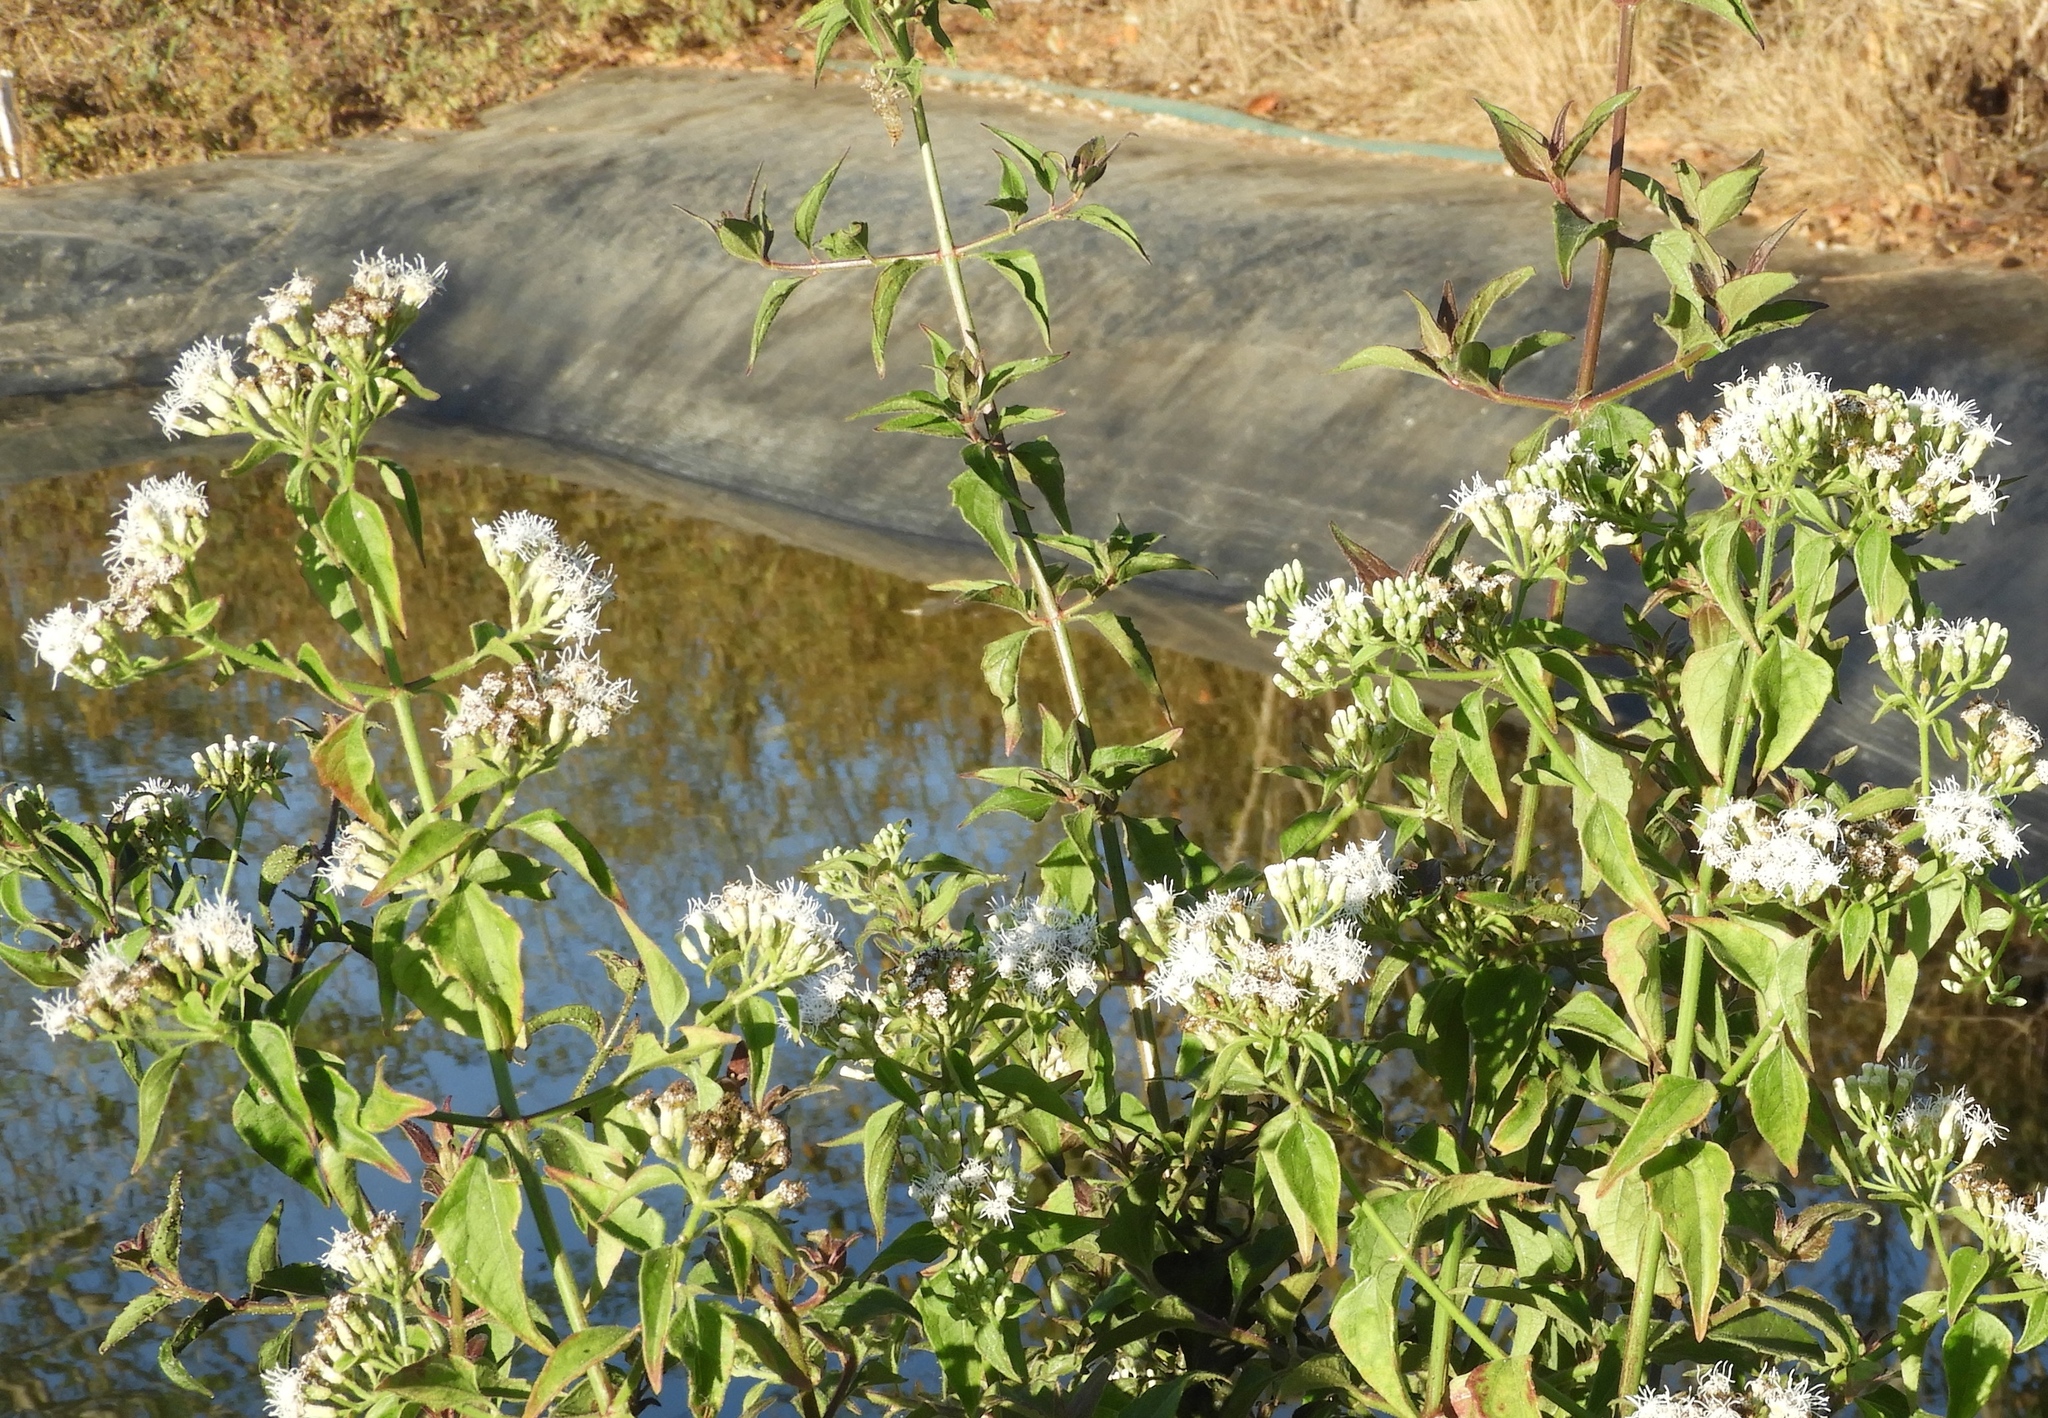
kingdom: Plantae
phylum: Tracheophyta
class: Magnoliopsida
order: Asterales
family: Asteraceae
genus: Chromolaena
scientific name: Chromolaena odorata
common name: Siamweed
